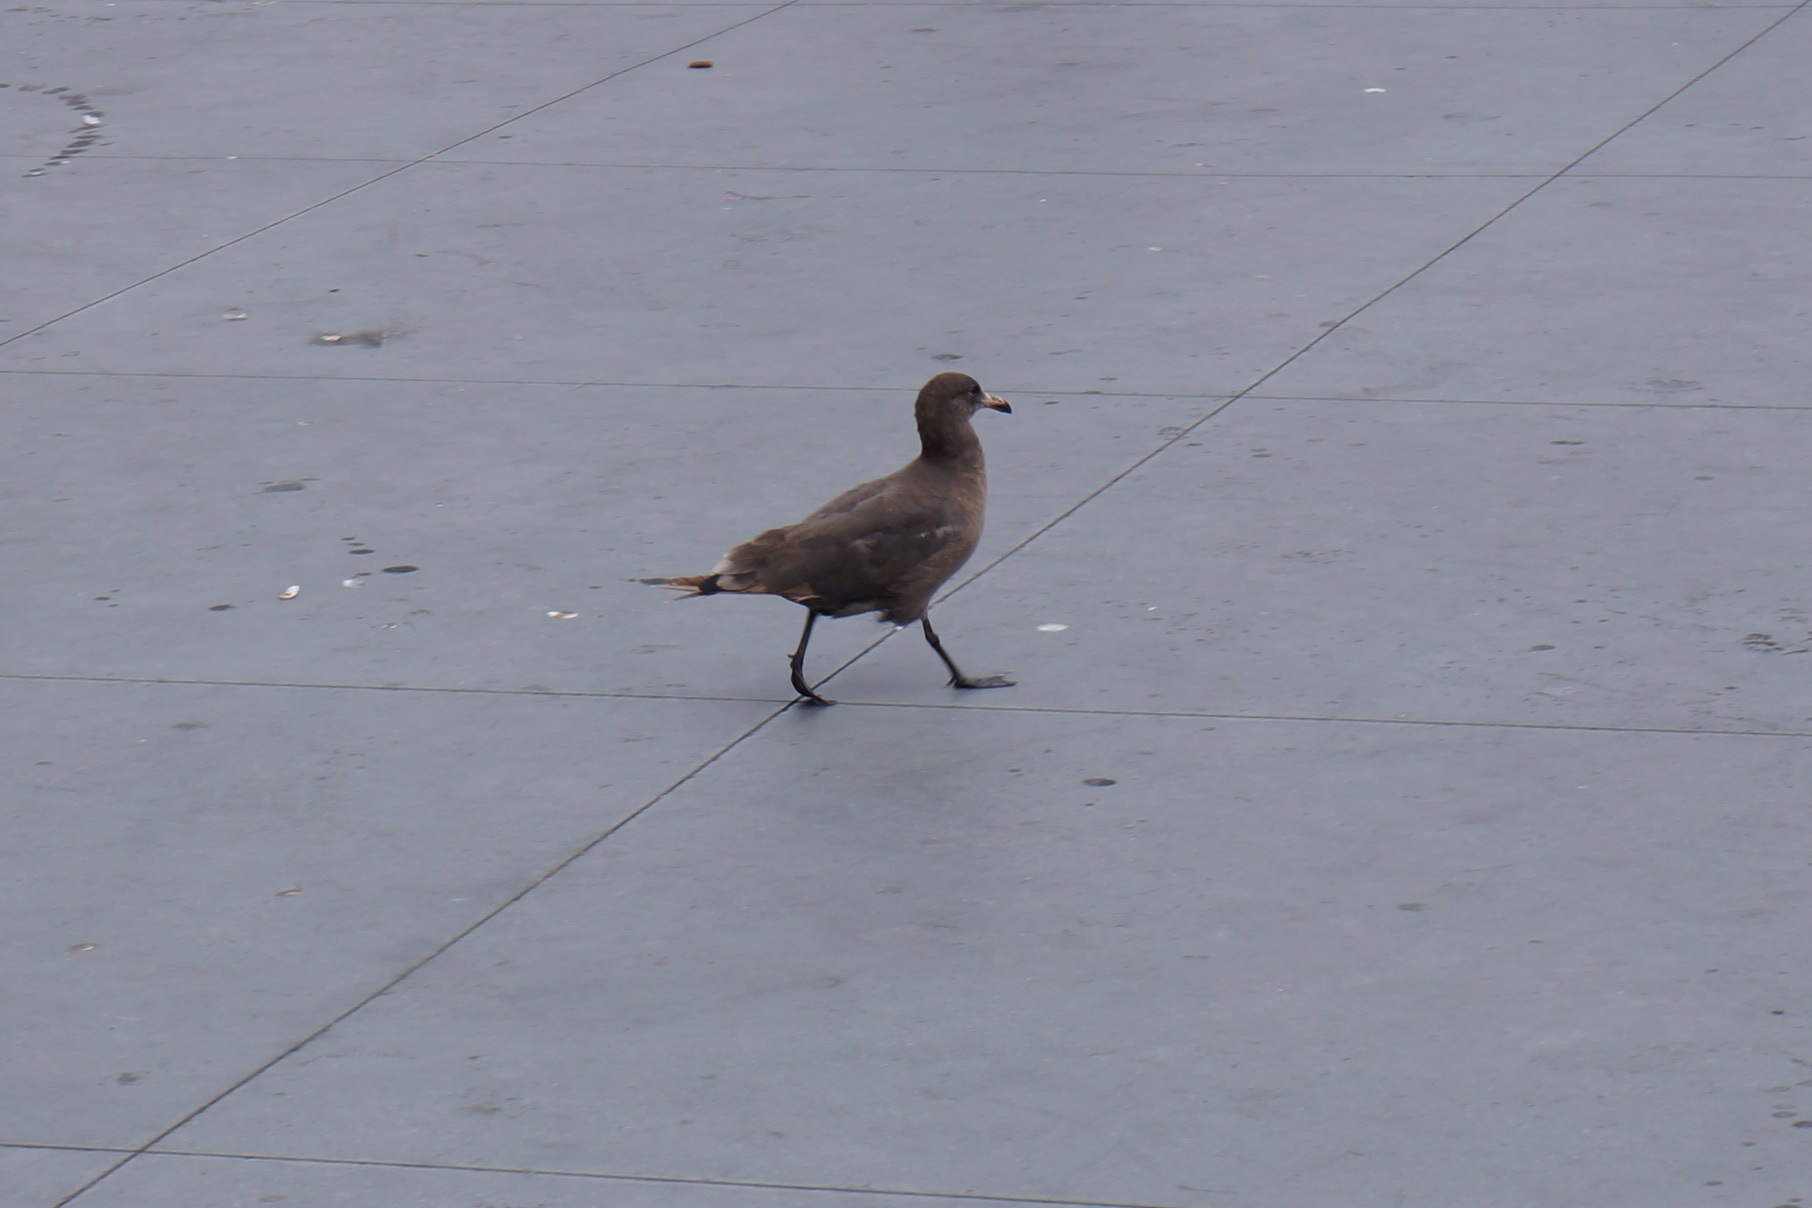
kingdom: Animalia
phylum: Chordata
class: Aves
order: Charadriiformes
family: Laridae
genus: Larus
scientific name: Larus heermanni
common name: Heermann's gull
